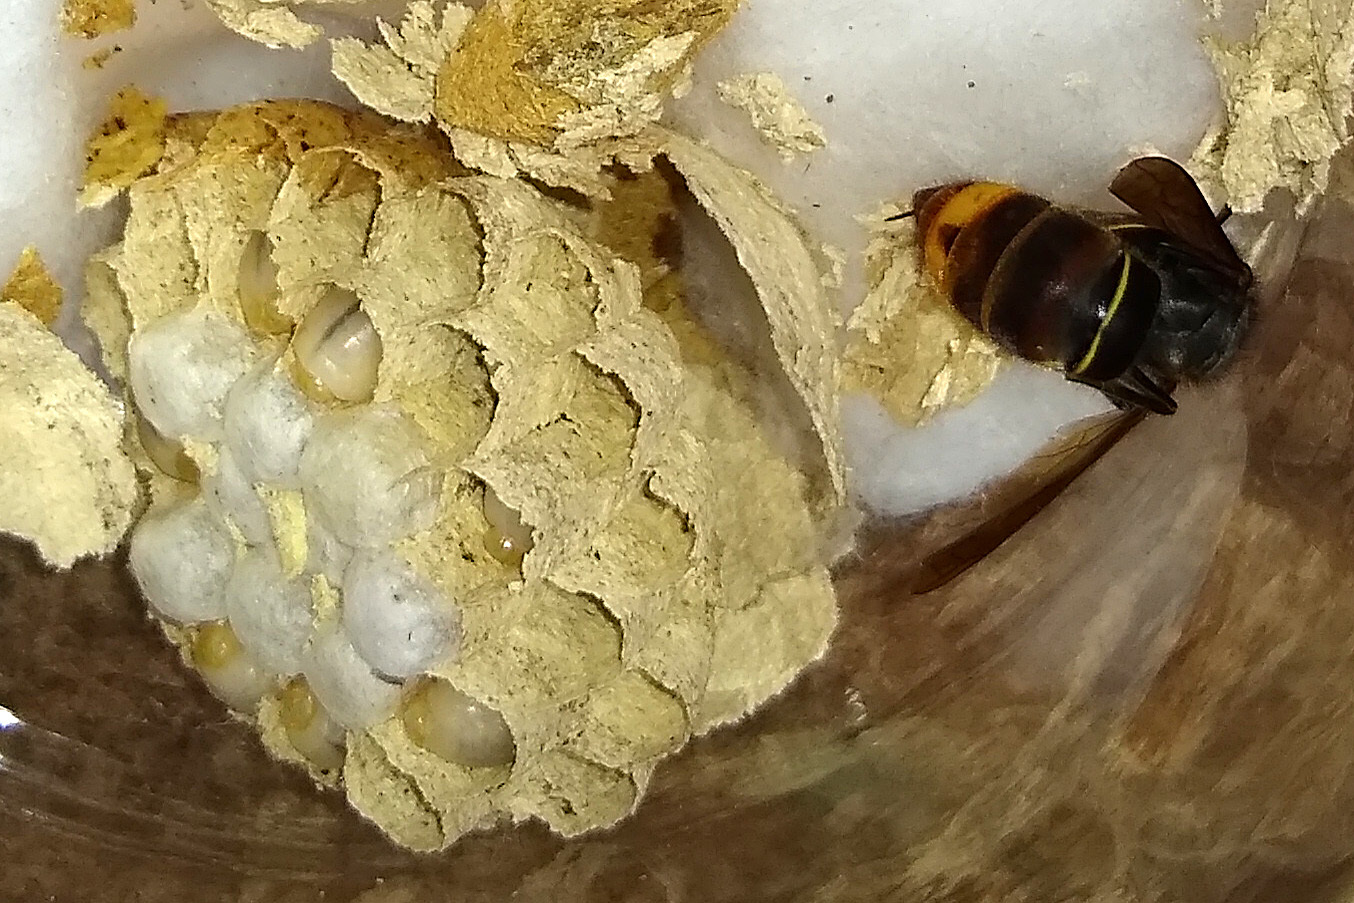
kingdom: Animalia
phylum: Arthropoda
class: Insecta
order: Hymenoptera
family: Vespidae
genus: Vespa
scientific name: Vespa velutina
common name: Asian hornet
